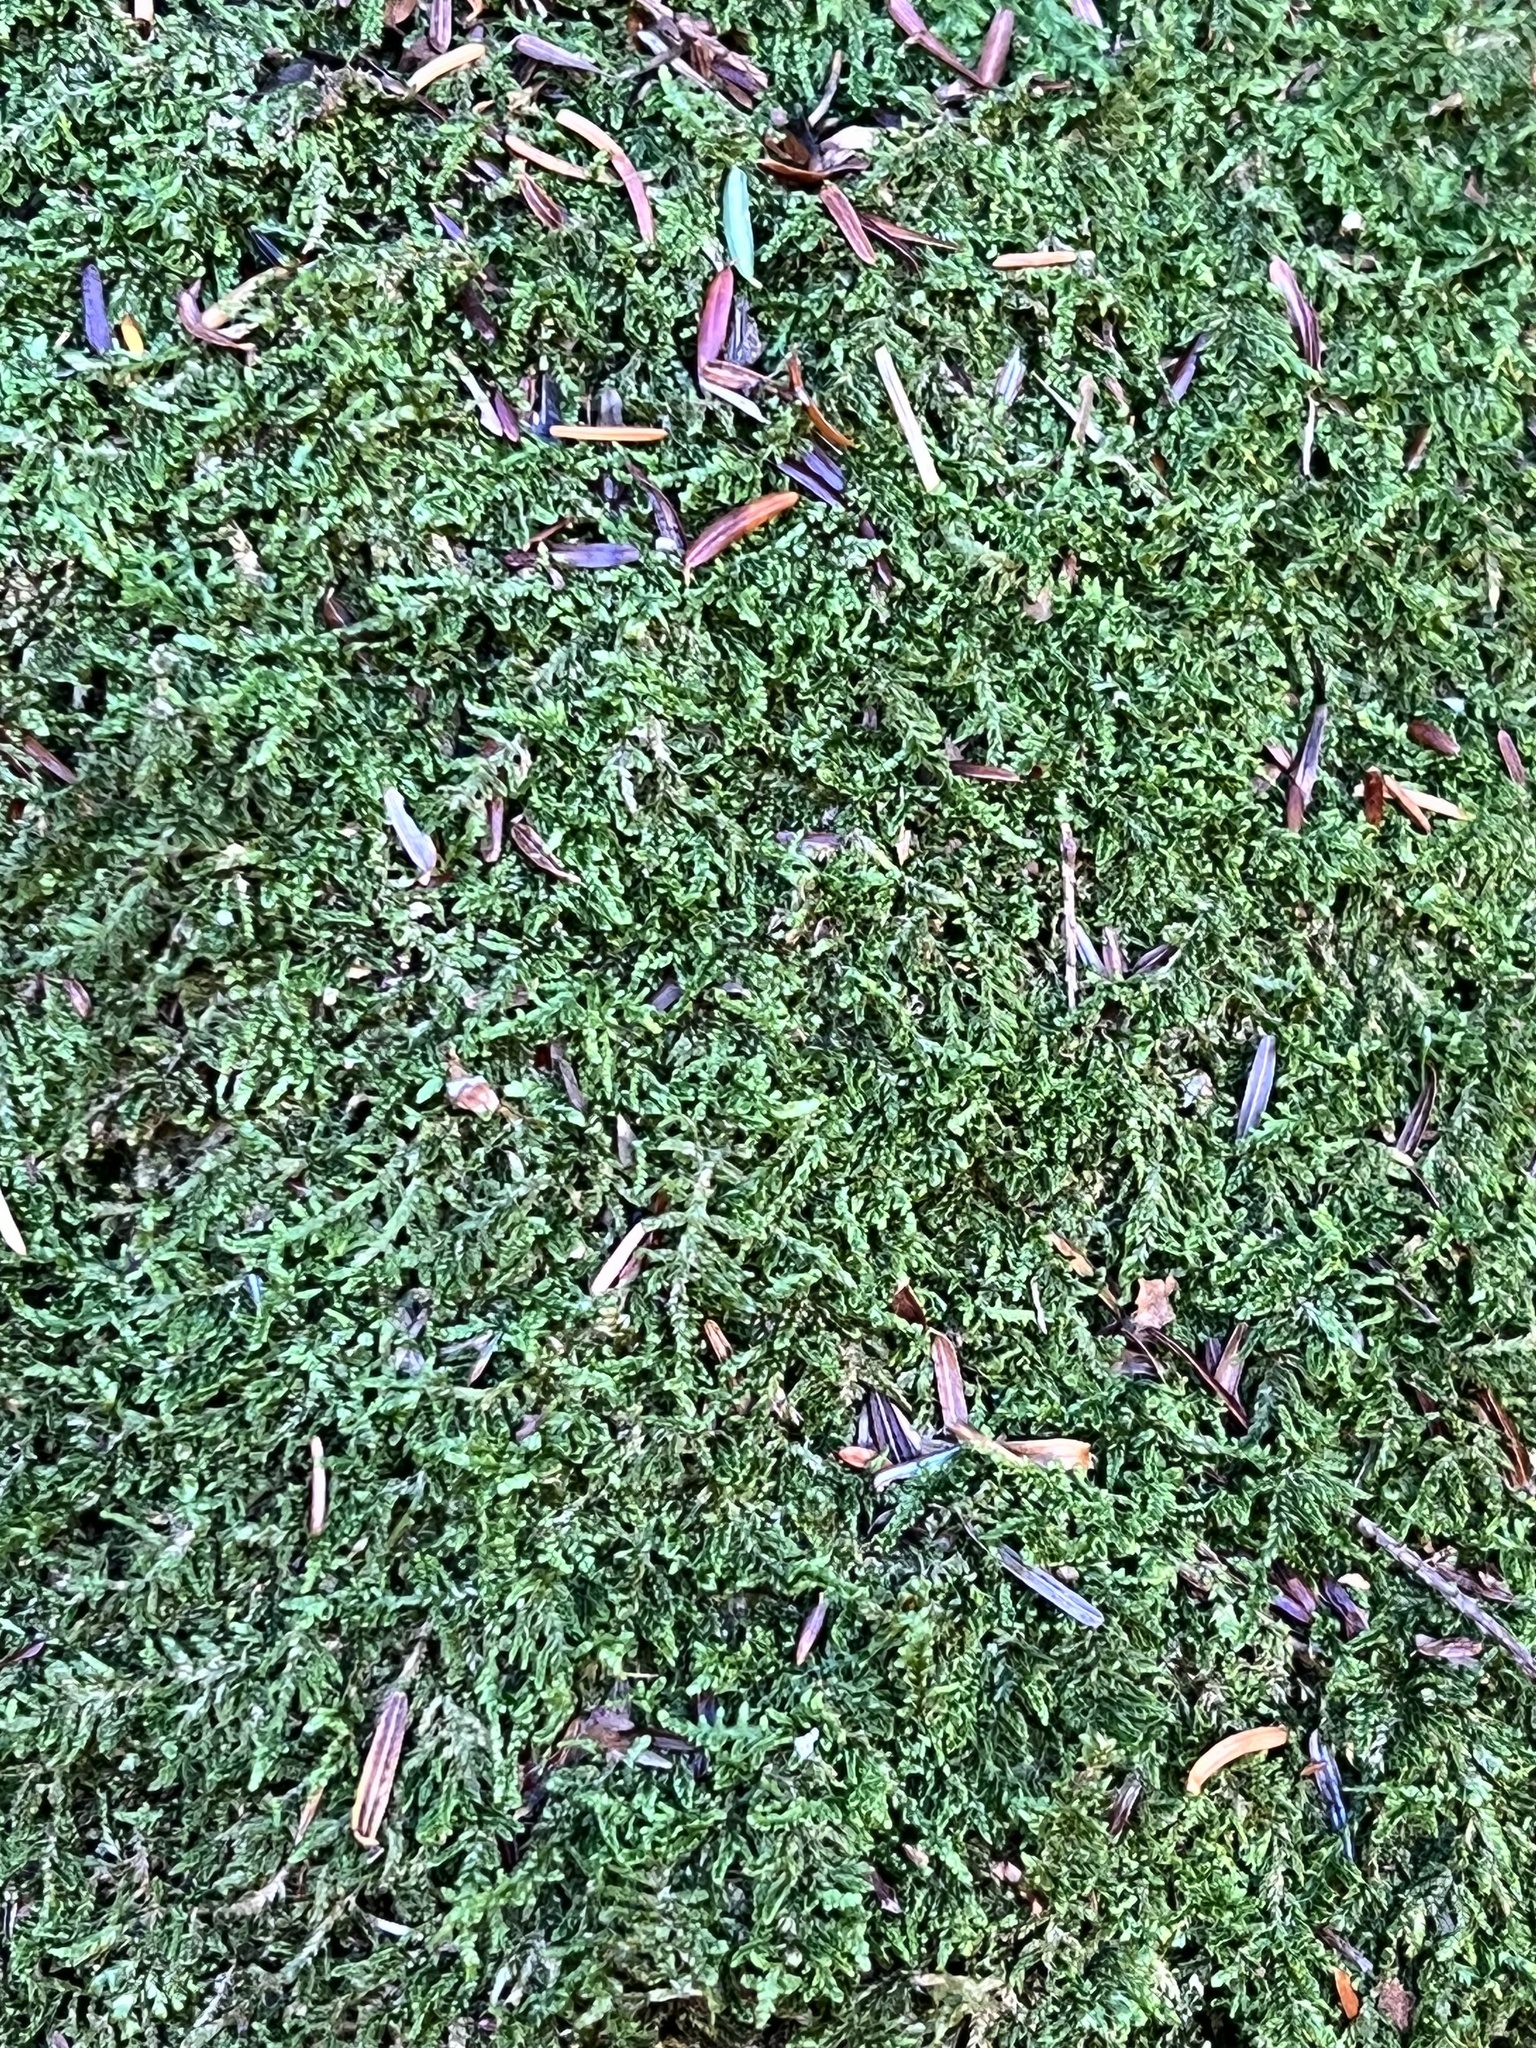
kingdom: Plantae
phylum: Bryophyta
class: Bryopsida
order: Hypnales
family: Callicladiaceae
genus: Callicladium
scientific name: Callicladium imponens
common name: Brocade moss
